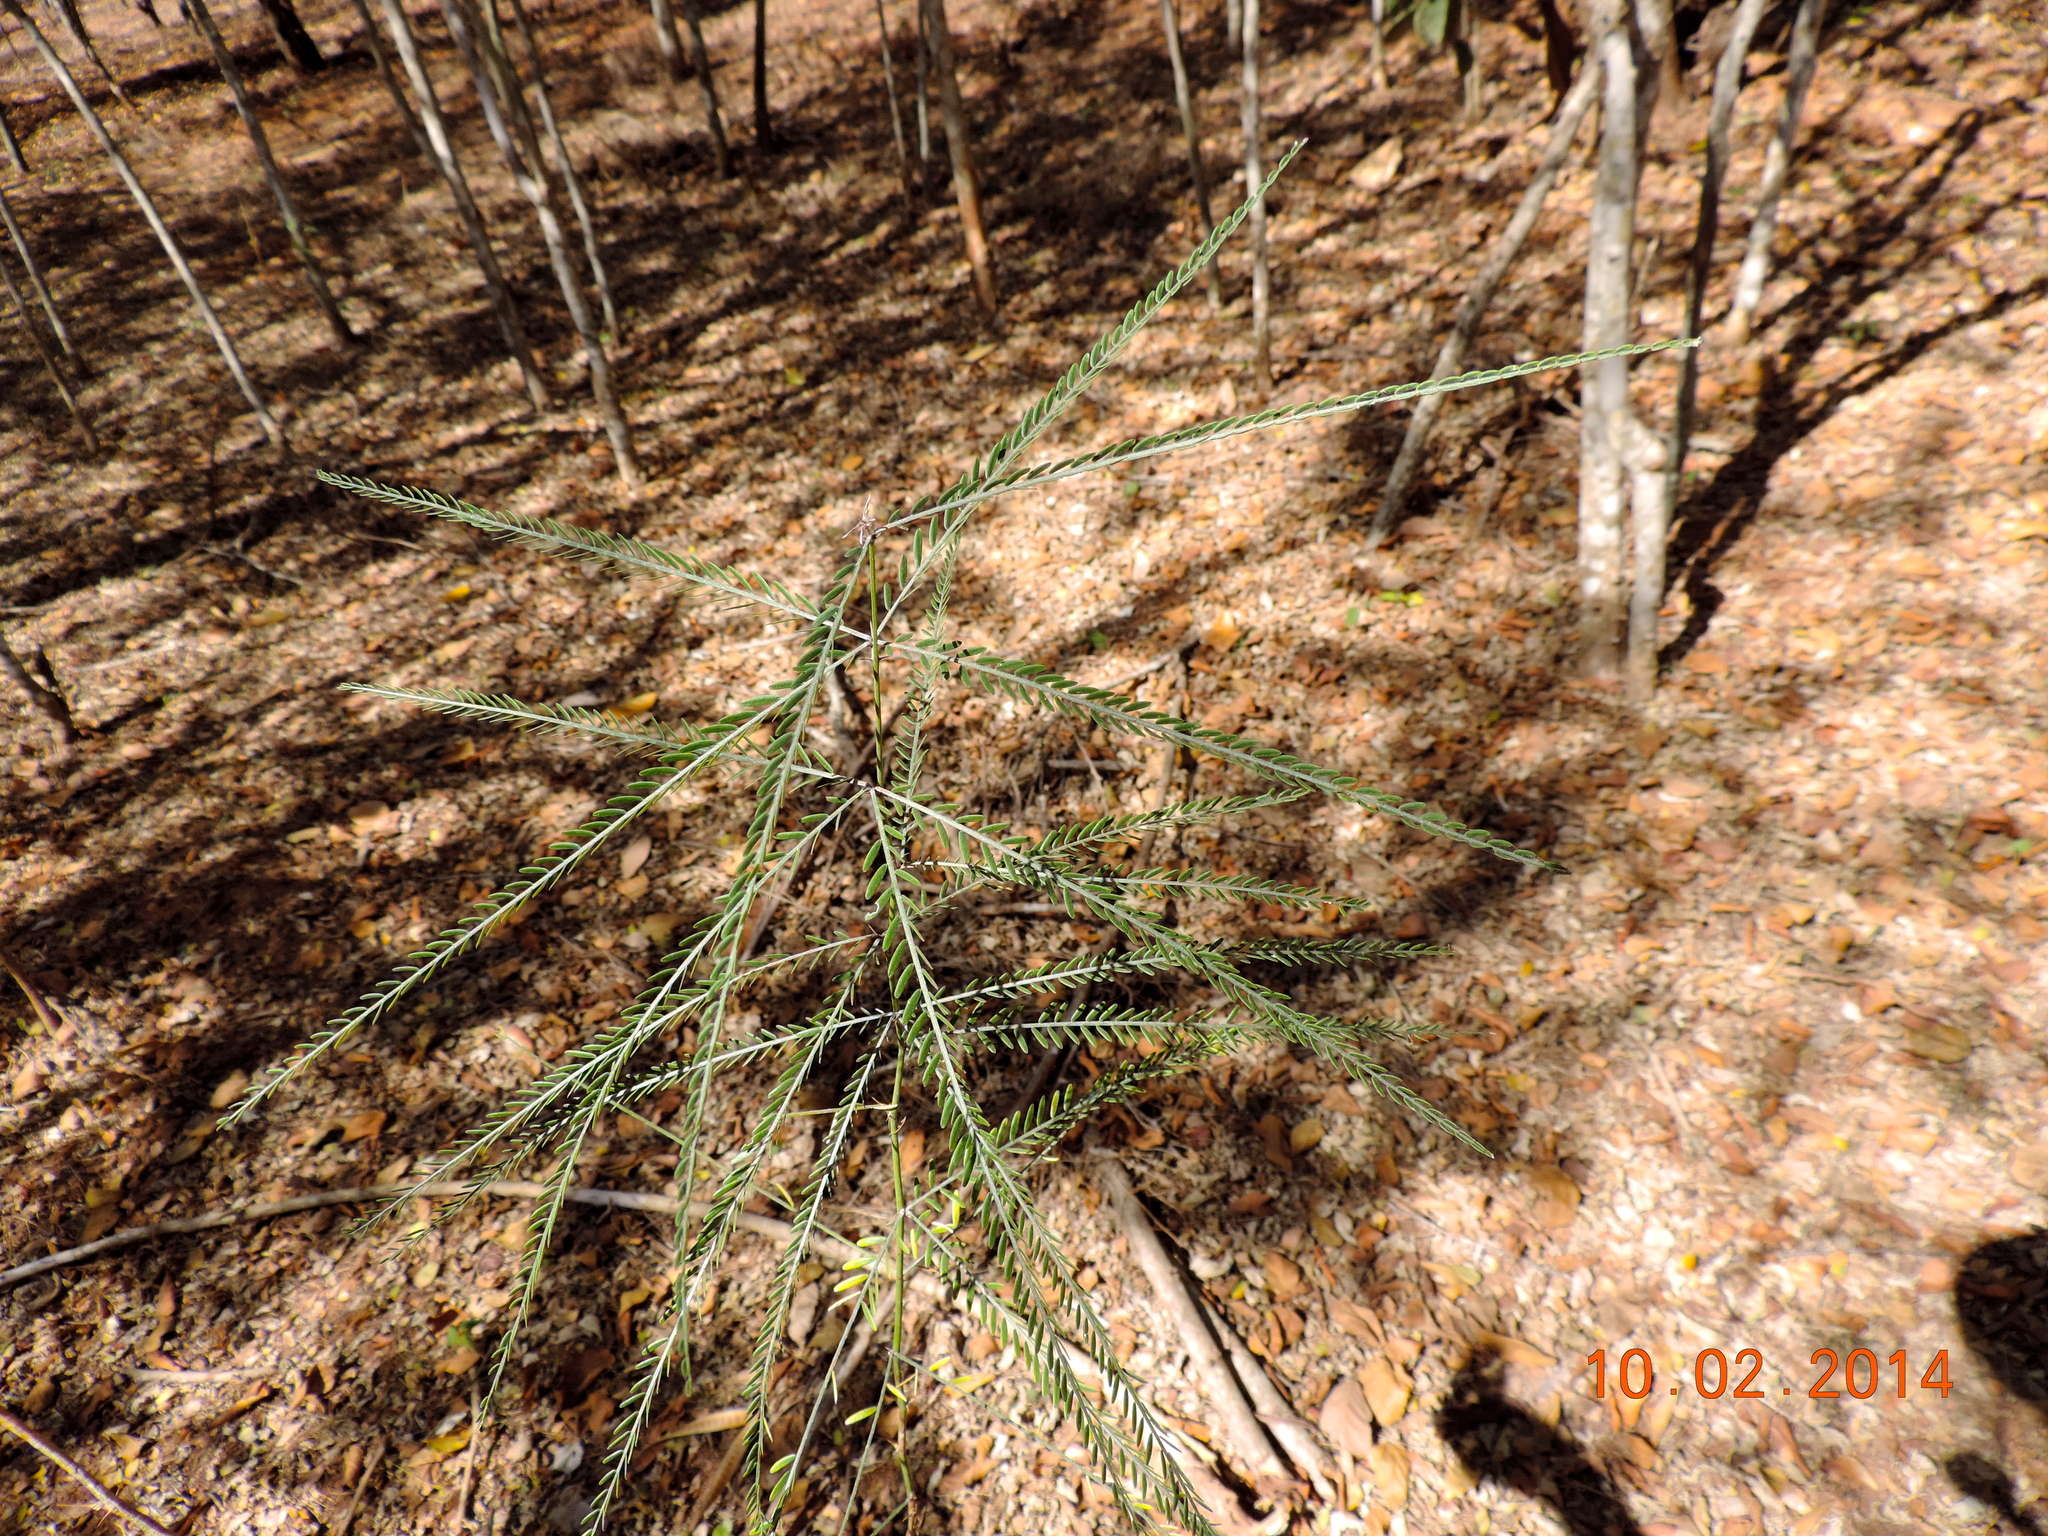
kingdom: Plantae
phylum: Tracheophyta
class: Magnoliopsida
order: Fabales
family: Fabaceae
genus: Parkinsonia
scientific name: Parkinsonia aculeata
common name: Jerusalem thorn
